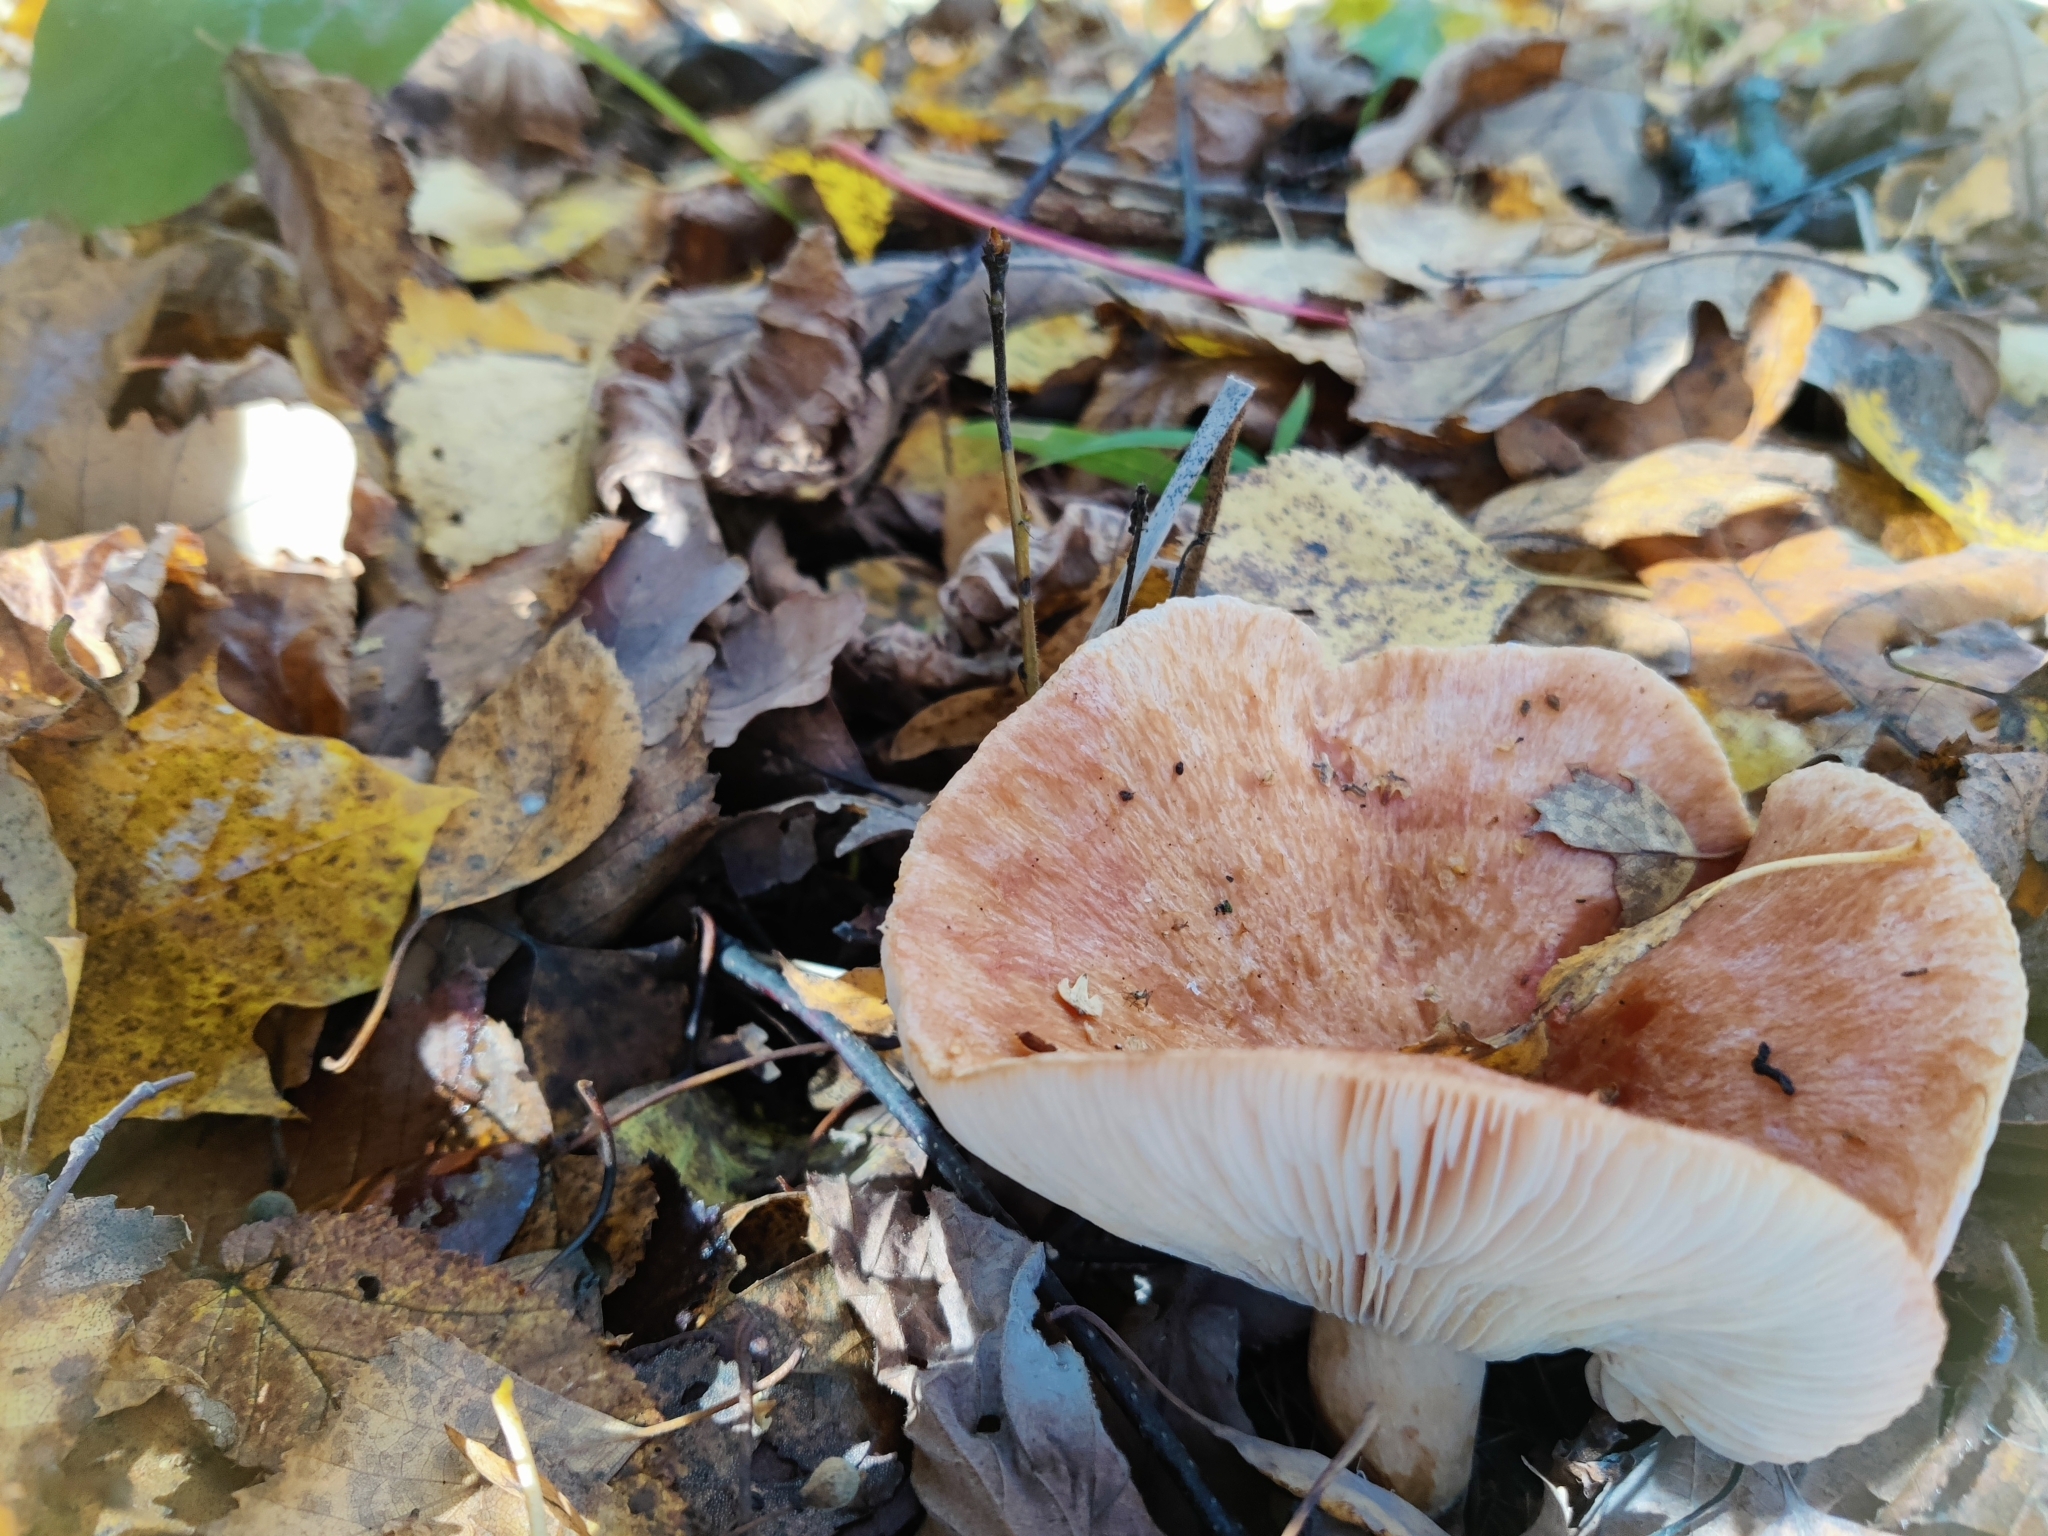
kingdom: Fungi
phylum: Basidiomycota
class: Agaricomycetes
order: Russulales
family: Russulaceae
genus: Lactarius
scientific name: Lactarius torminosus
